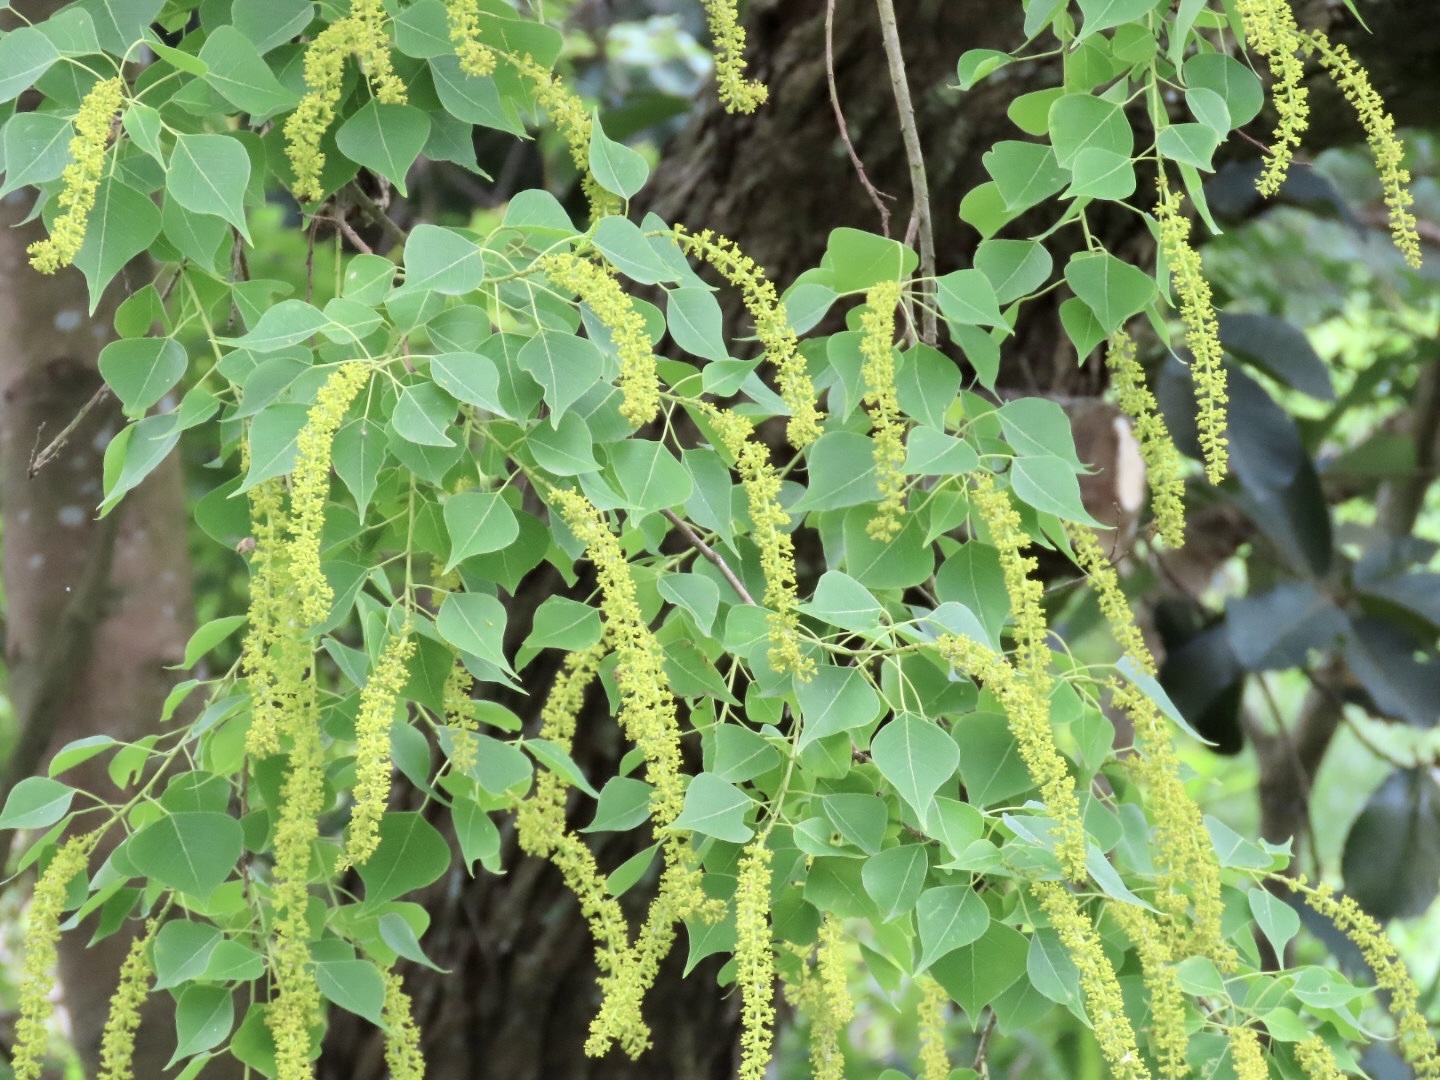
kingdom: Plantae
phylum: Tracheophyta
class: Magnoliopsida
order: Malpighiales
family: Euphorbiaceae
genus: Triadica
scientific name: Triadica sebifera
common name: Chinese tallow
